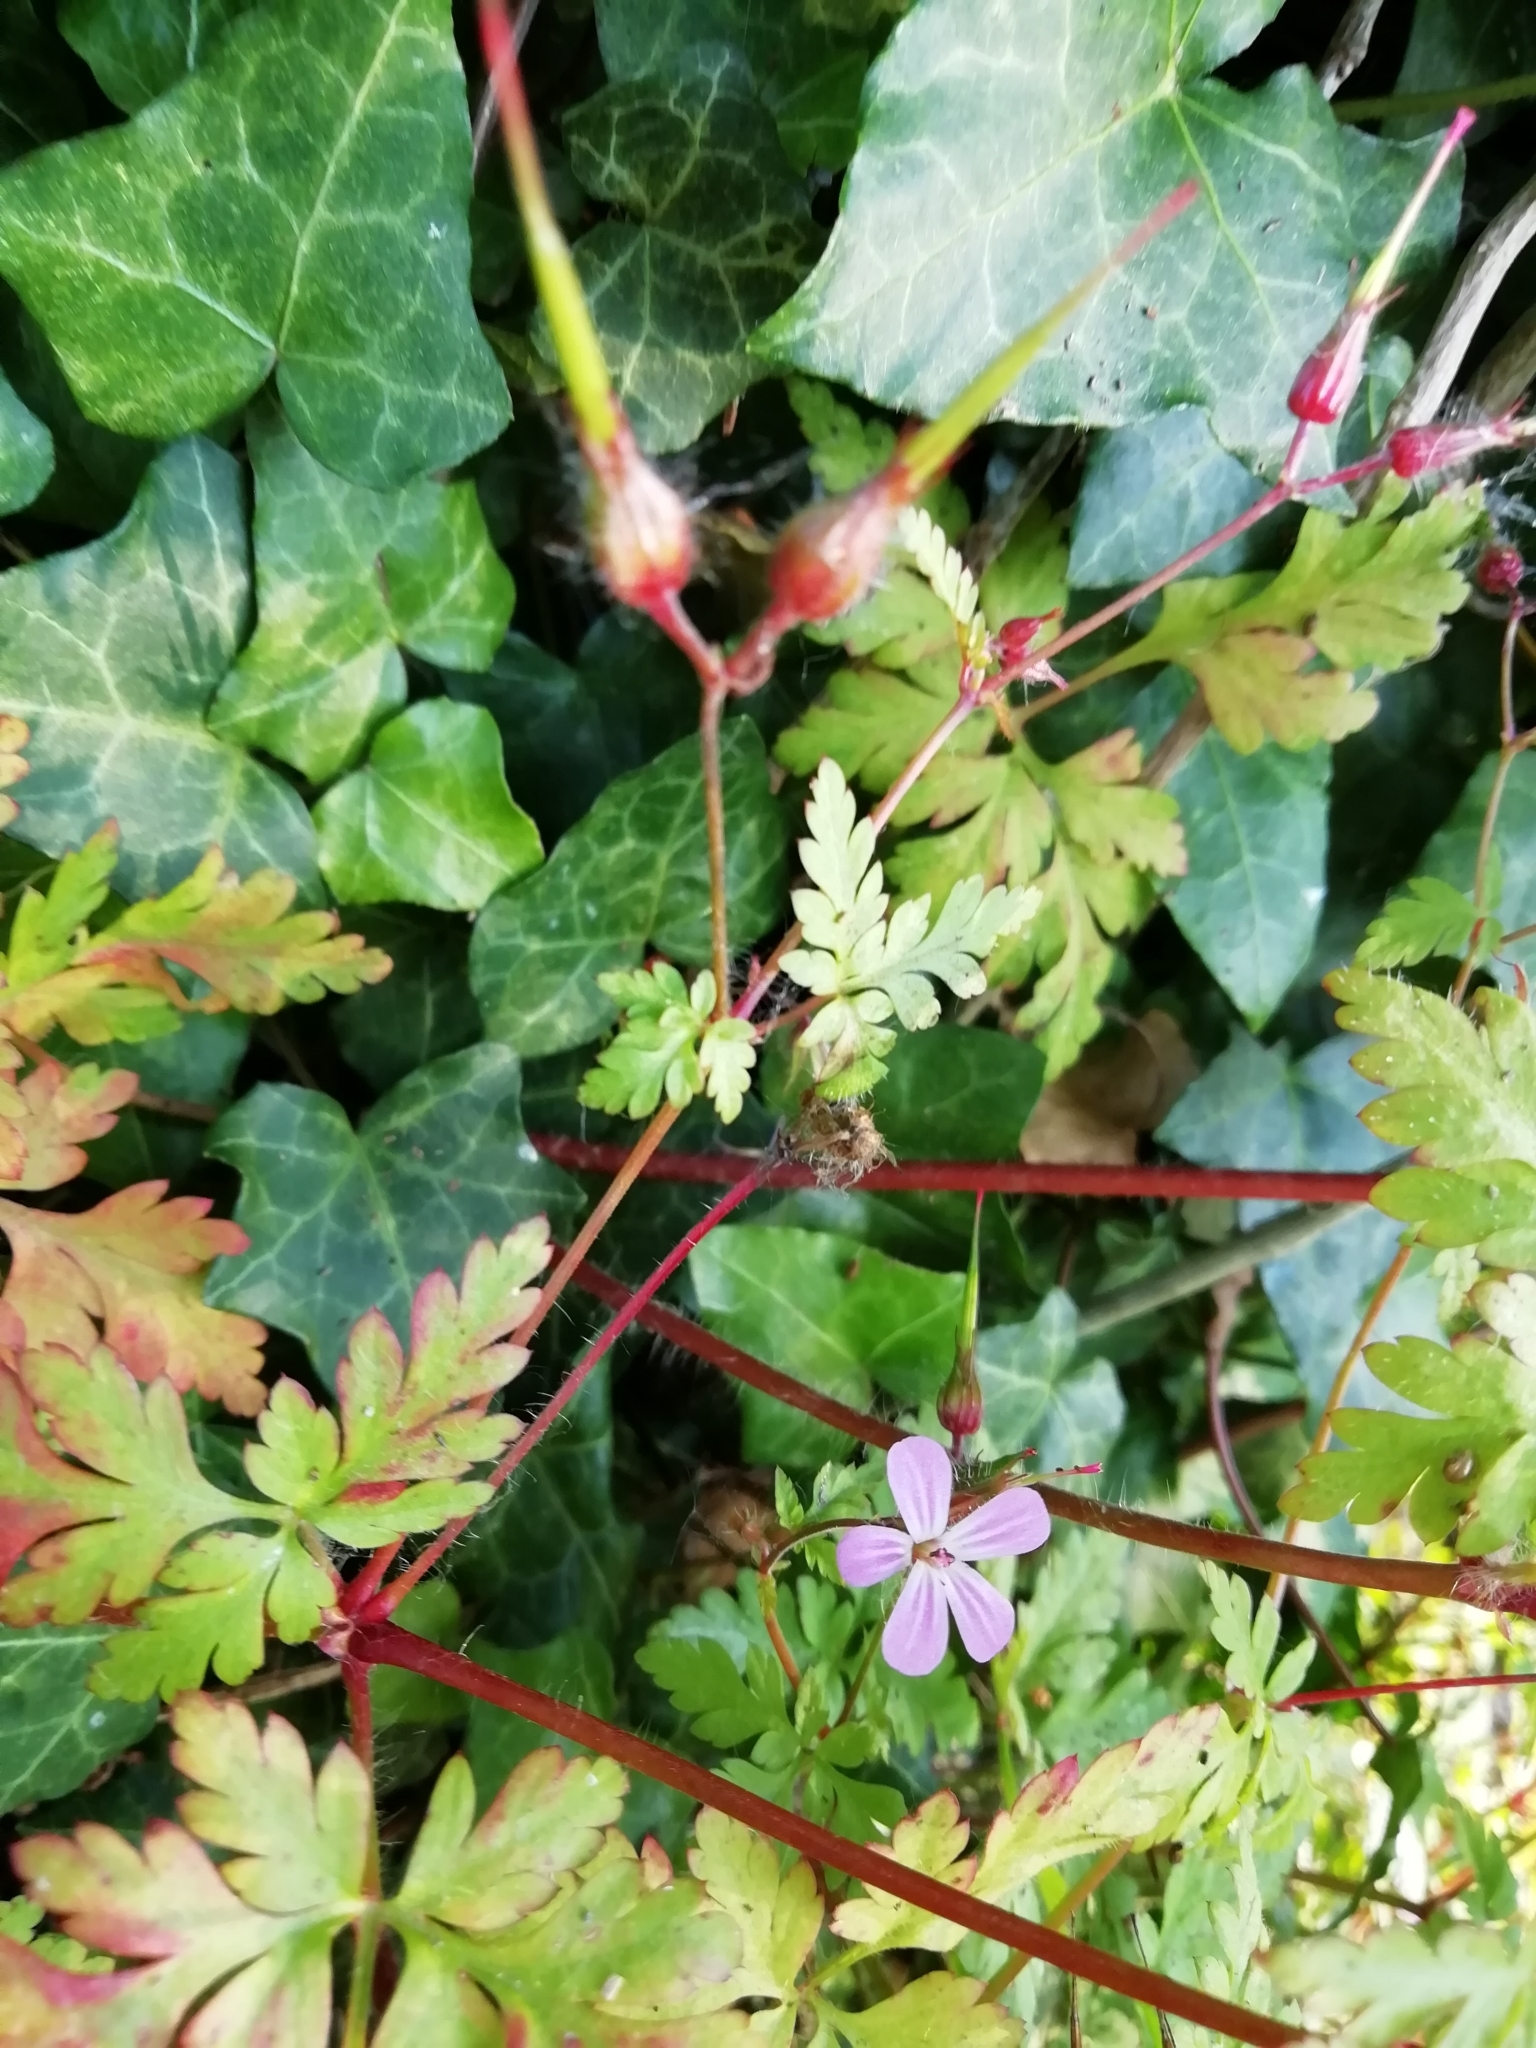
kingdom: Plantae
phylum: Tracheophyta
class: Magnoliopsida
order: Geraniales
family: Geraniaceae
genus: Geranium
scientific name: Geranium robertianum
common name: Herb-robert
